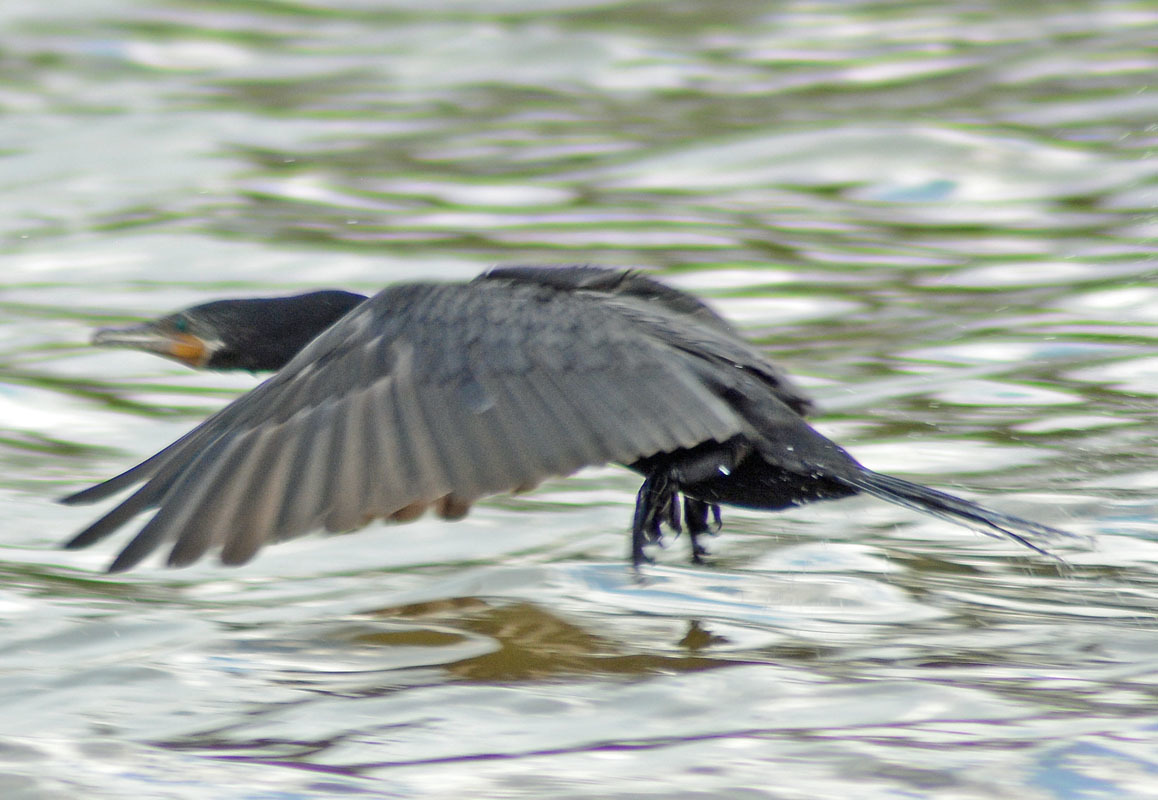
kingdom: Animalia
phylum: Chordata
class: Aves
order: Suliformes
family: Phalacrocoracidae
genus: Phalacrocorax
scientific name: Phalacrocorax brasilianus
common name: Neotropic cormorant
